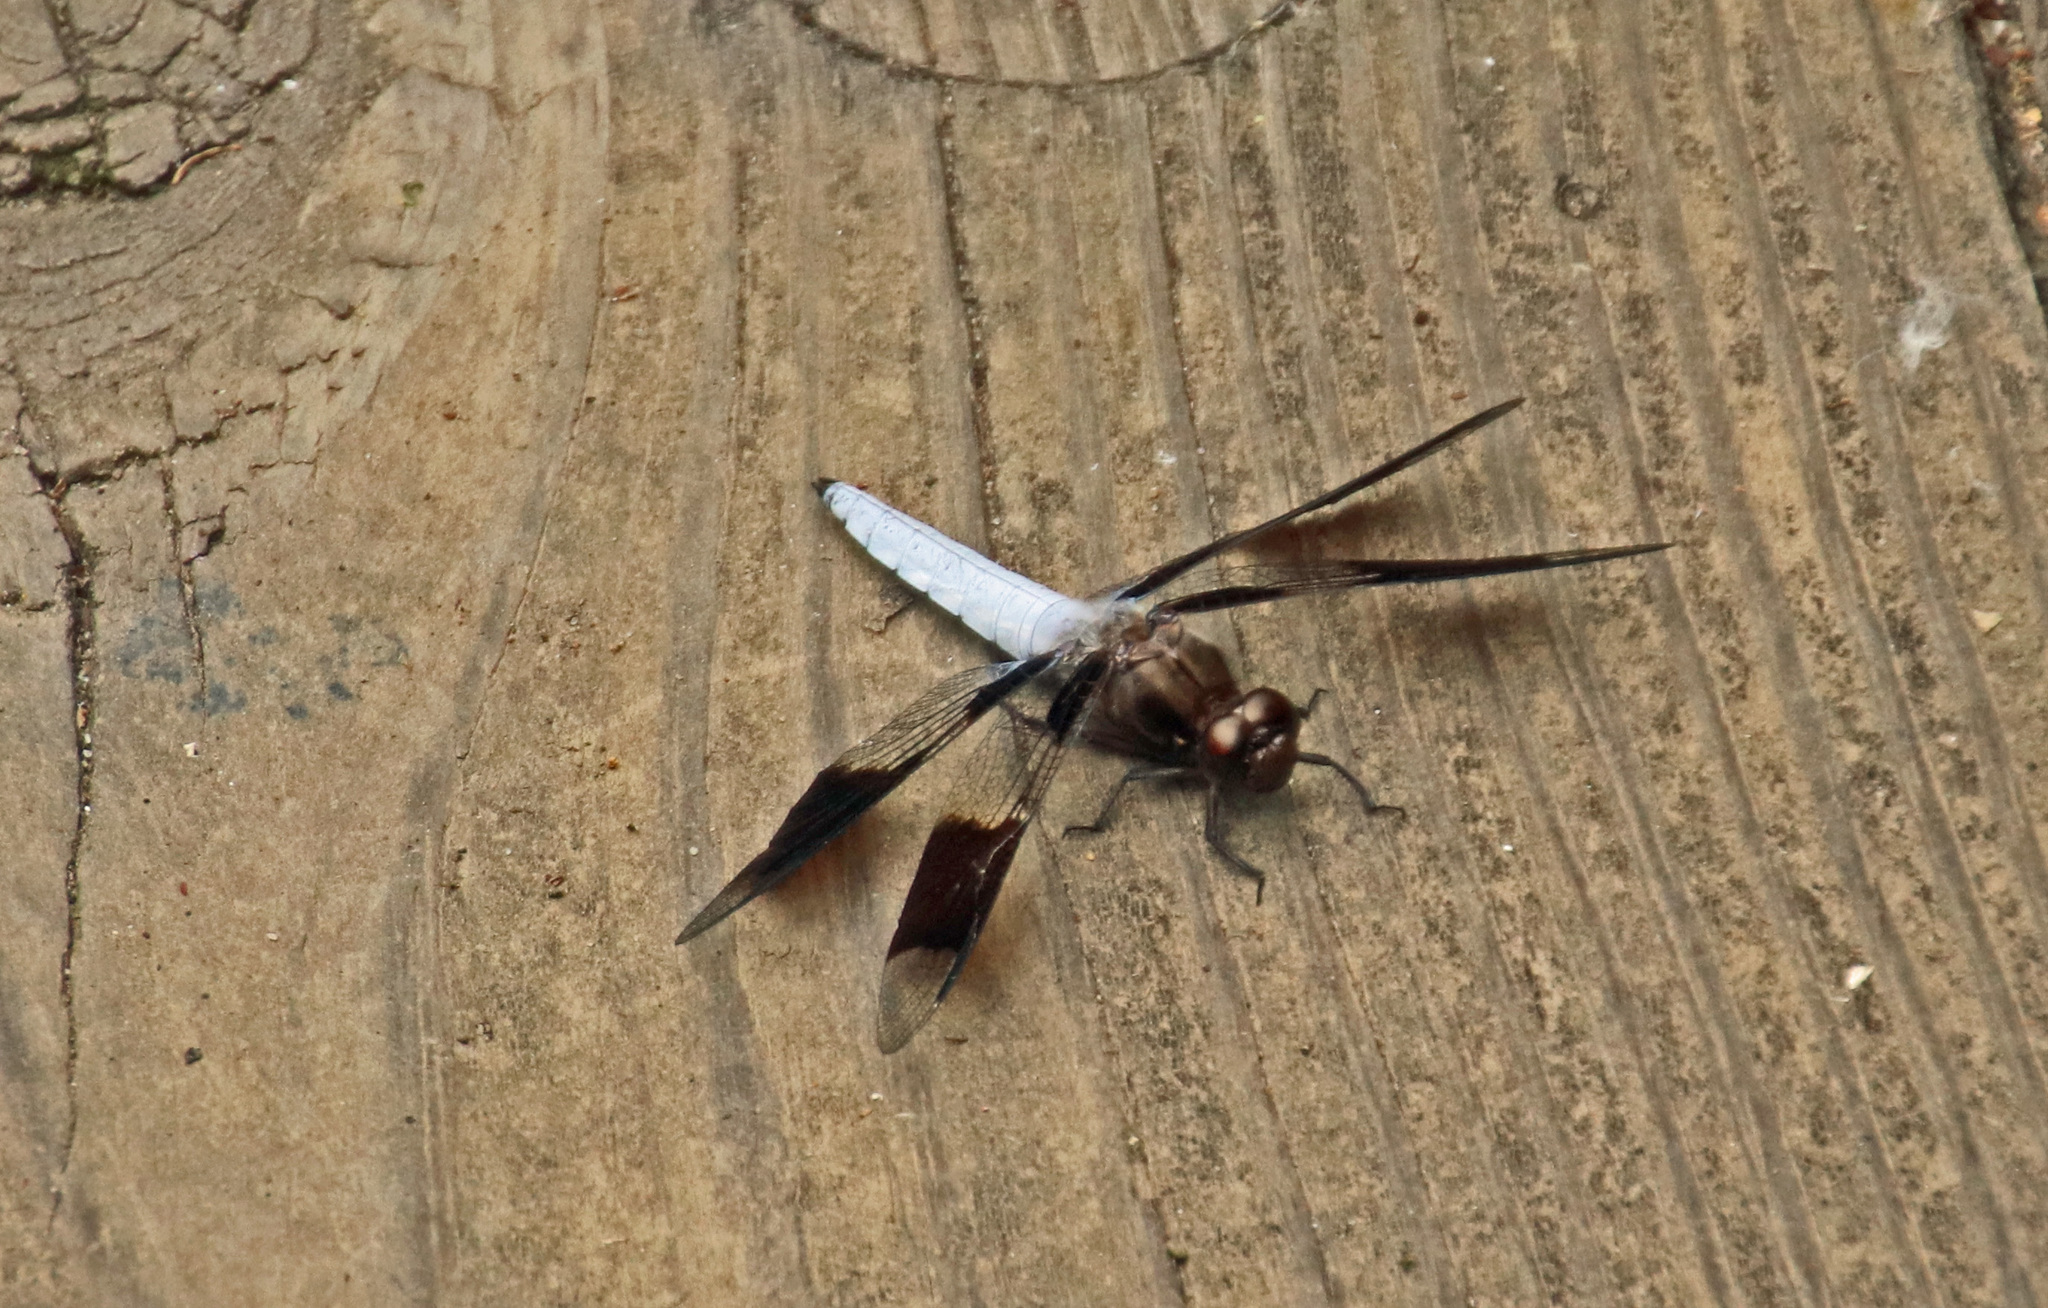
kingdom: Animalia
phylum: Arthropoda
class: Insecta
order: Odonata
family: Libellulidae
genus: Plathemis
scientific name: Plathemis lydia
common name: Common whitetail
